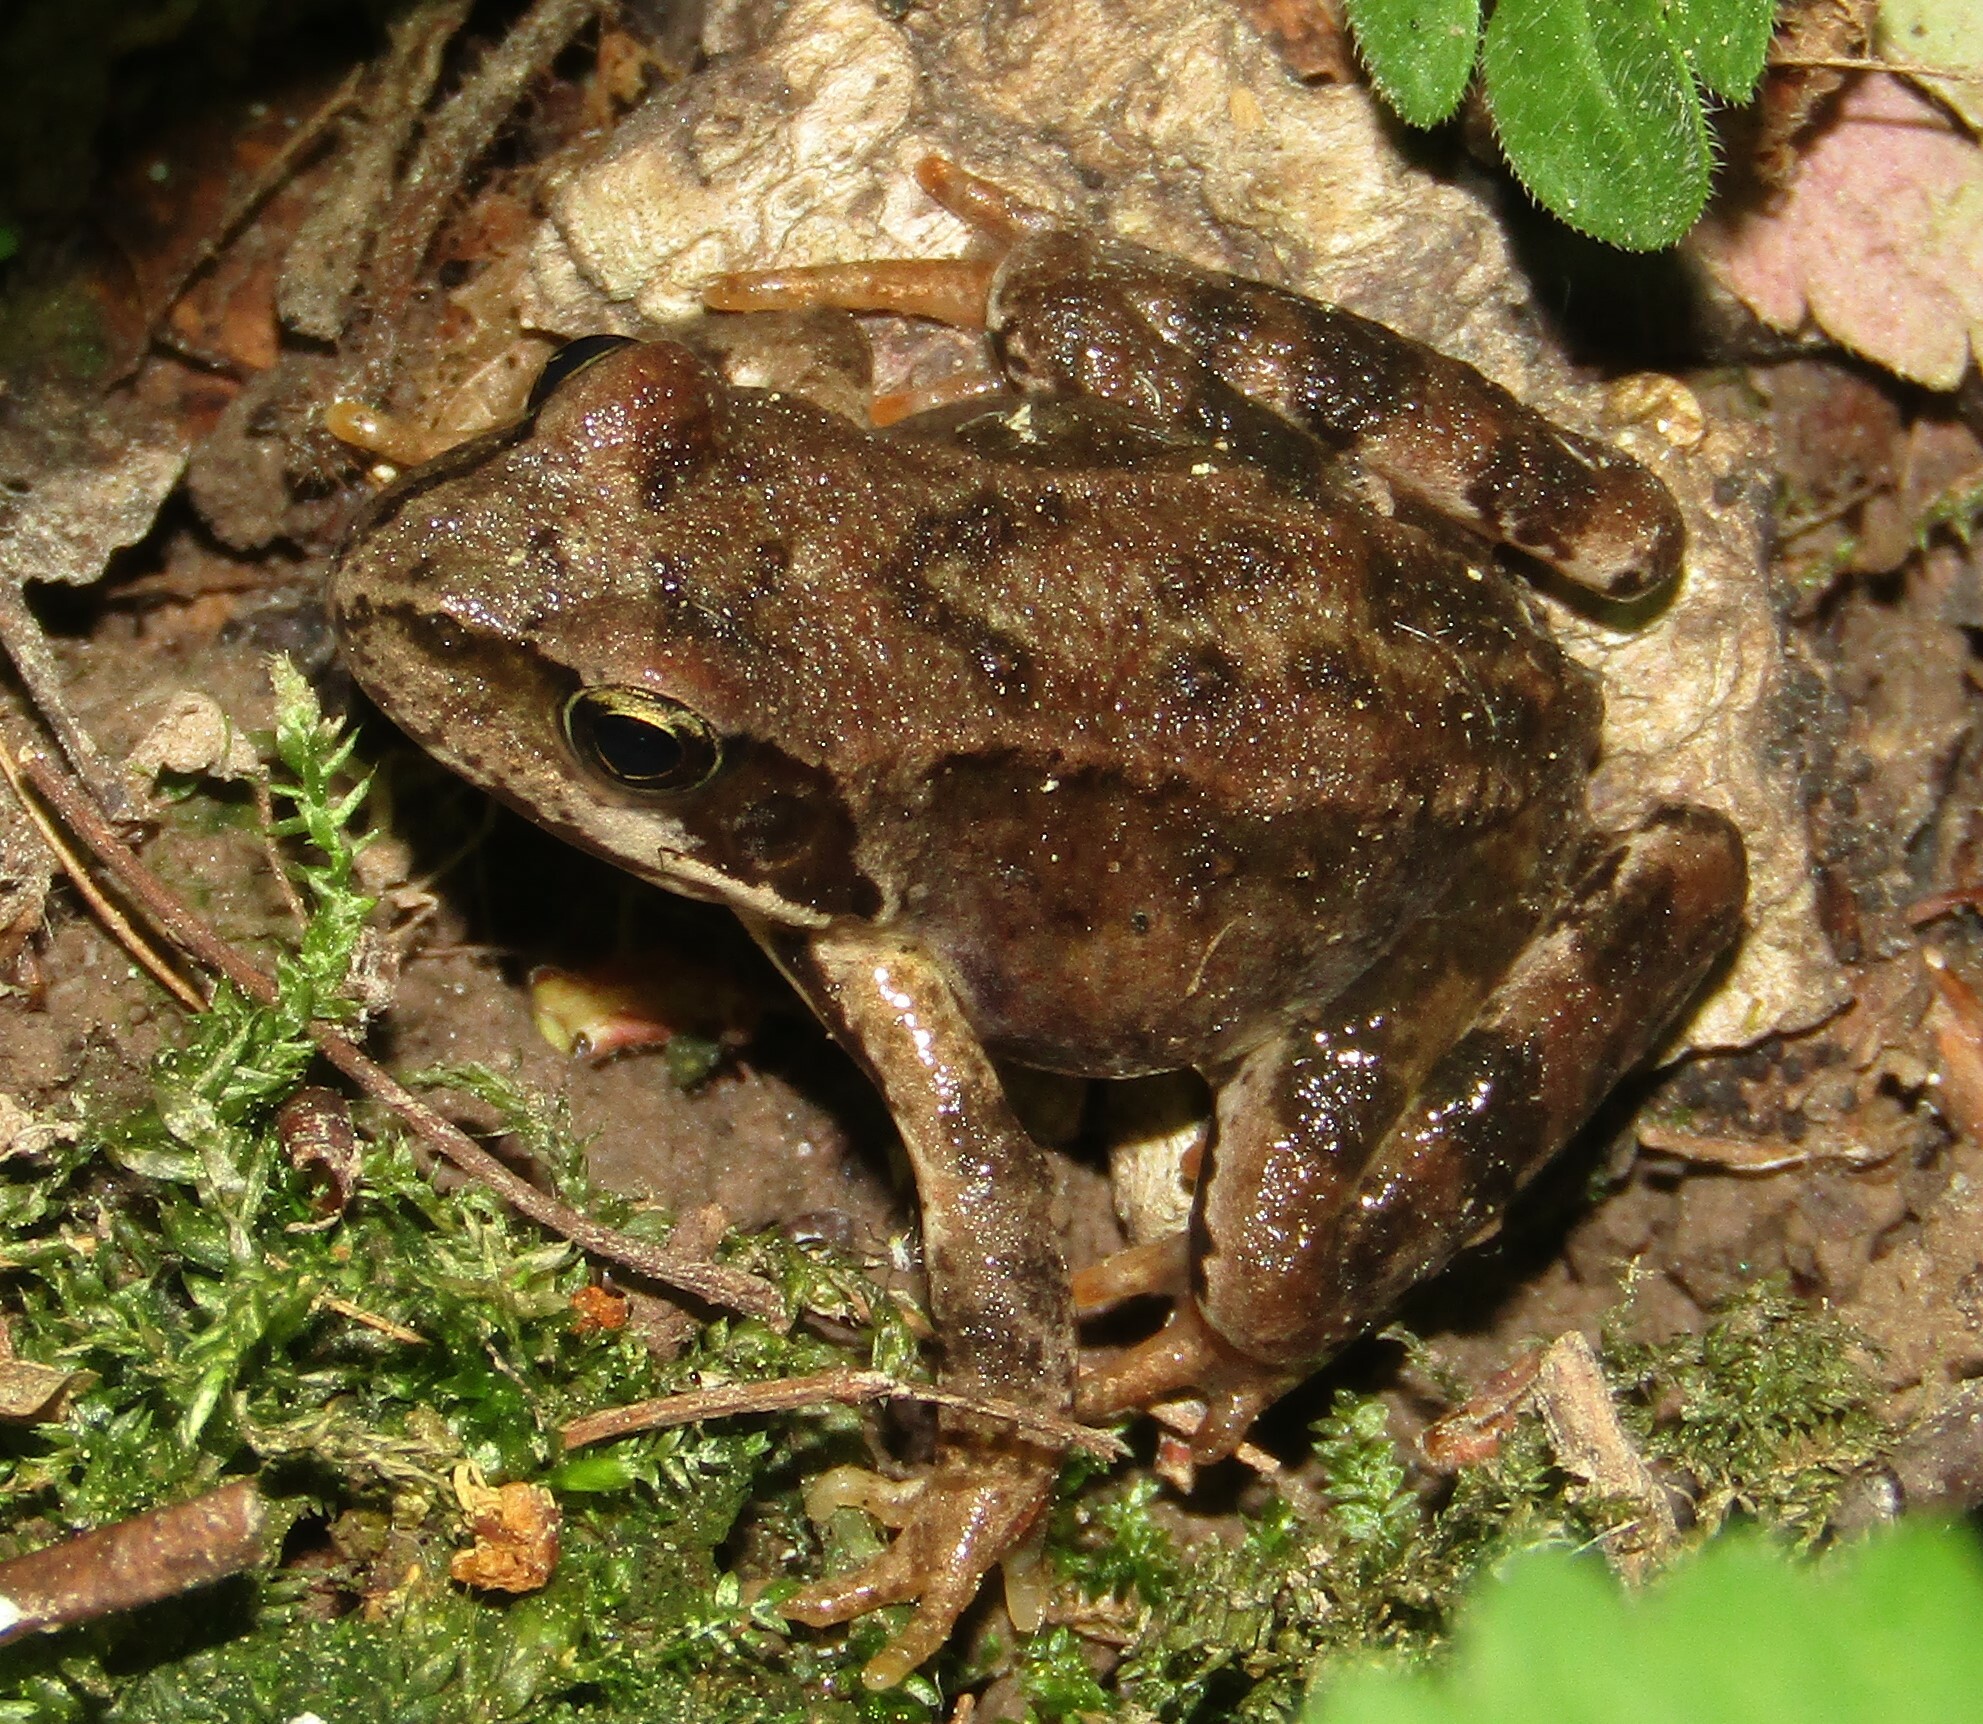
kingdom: Animalia
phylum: Chordata
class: Amphibia
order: Anura
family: Ranidae
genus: Rana
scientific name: Rana temporaria
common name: Common frog
